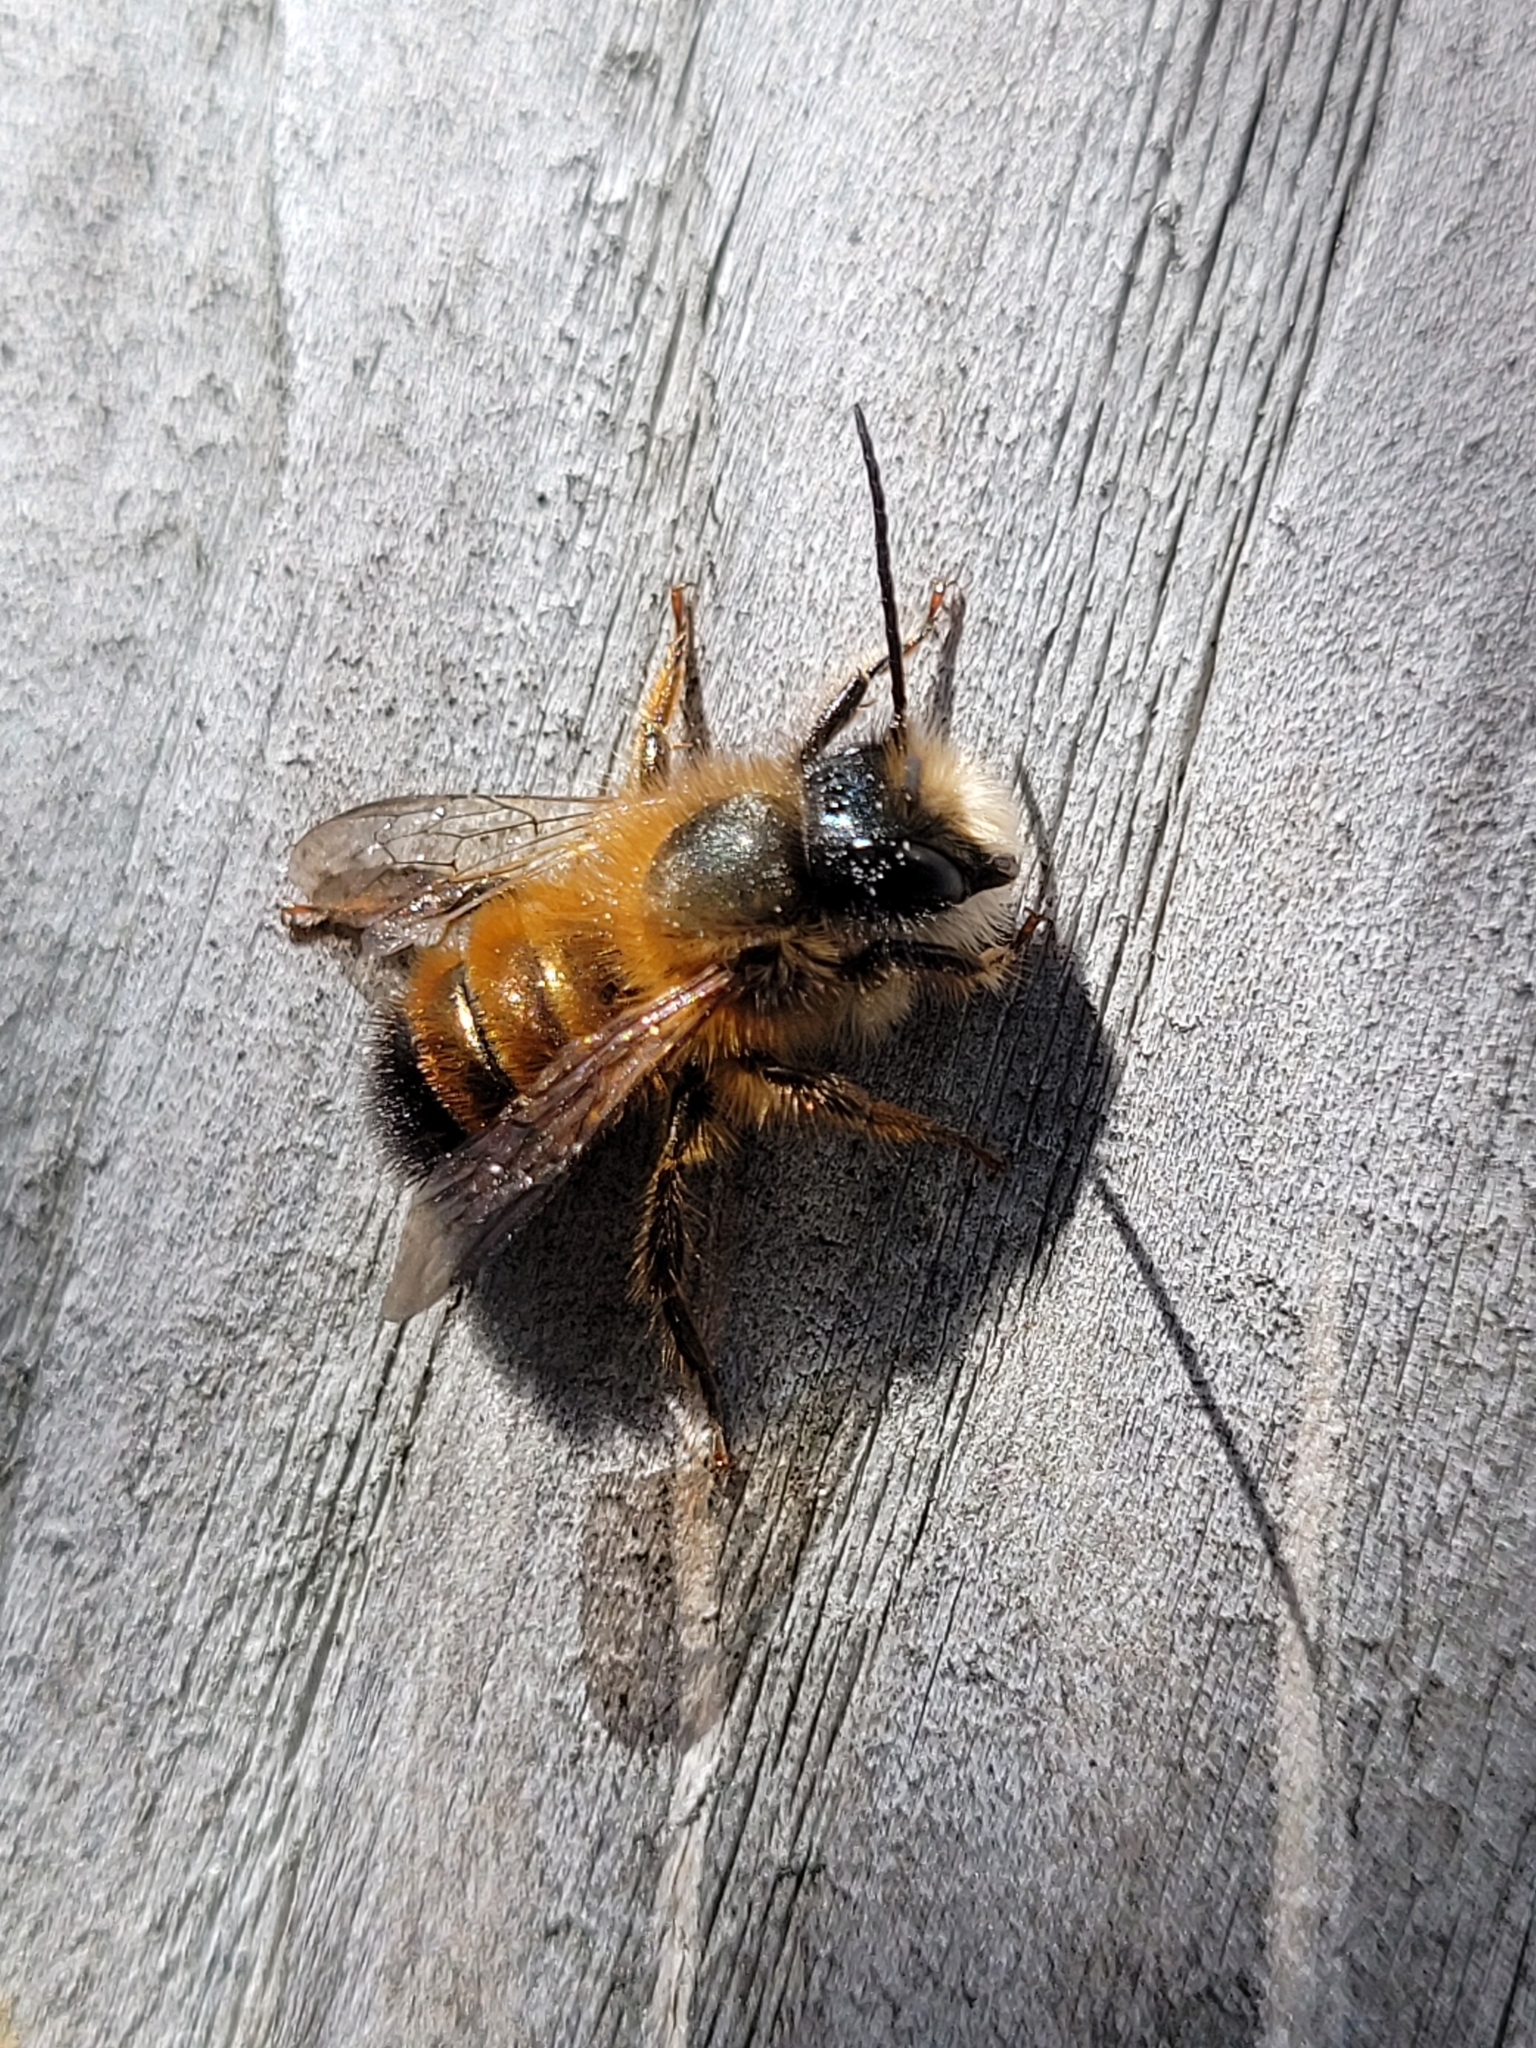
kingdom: Animalia
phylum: Arthropoda
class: Insecta
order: Hymenoptera
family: Megachilidae
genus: Osmia
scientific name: Osmia bicornis
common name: Red mason bee
